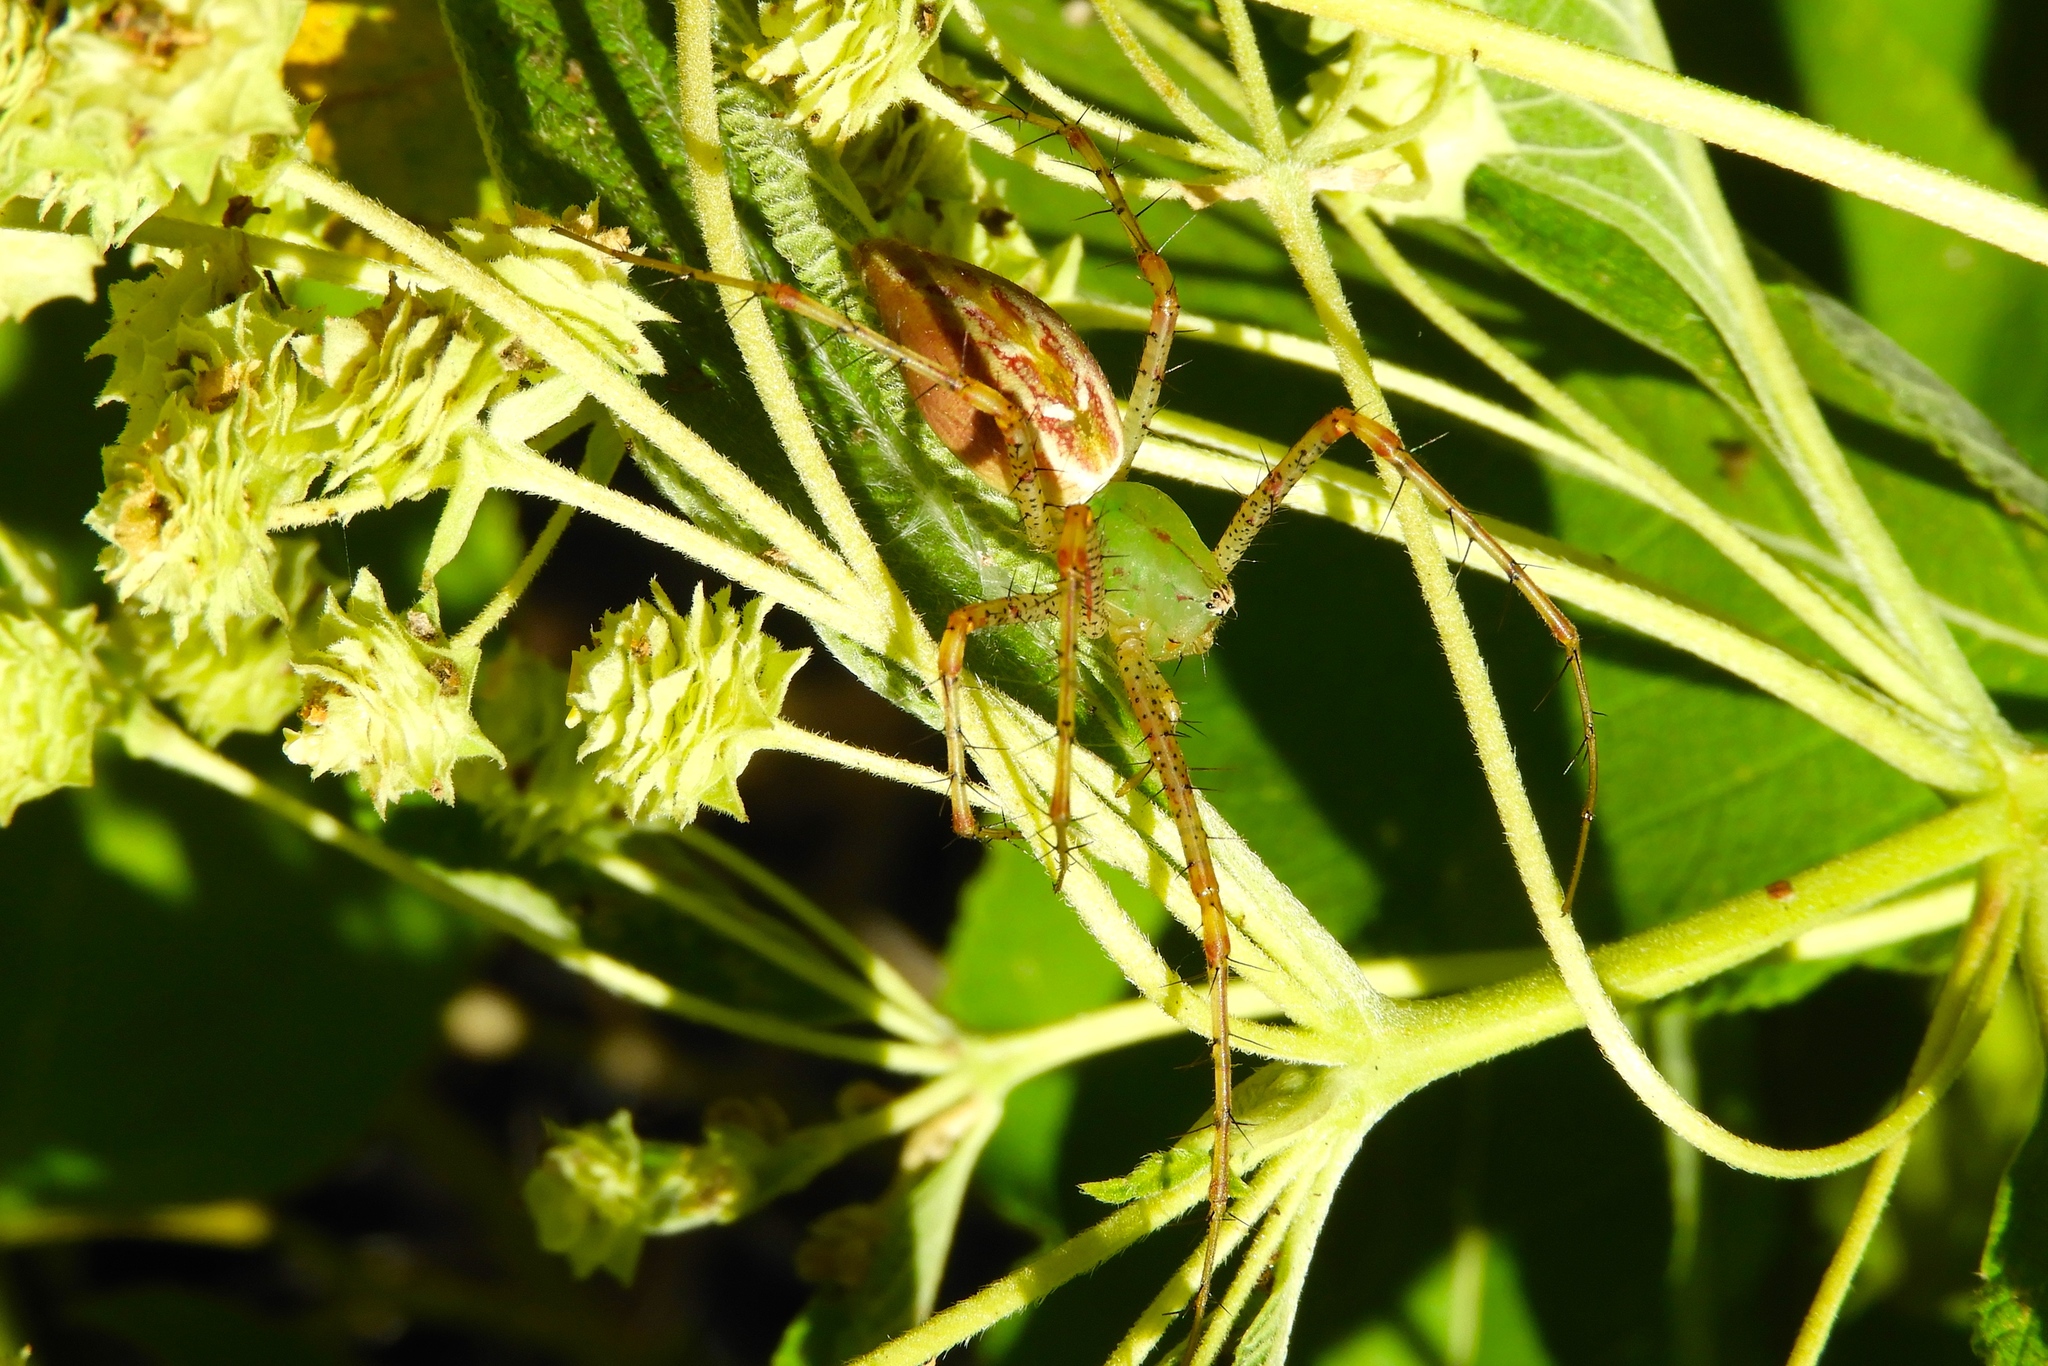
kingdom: Animalia
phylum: Arthropoda
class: Arachnida
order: Araneae
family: Oxyopidae
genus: Peucetia
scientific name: Peucetia
